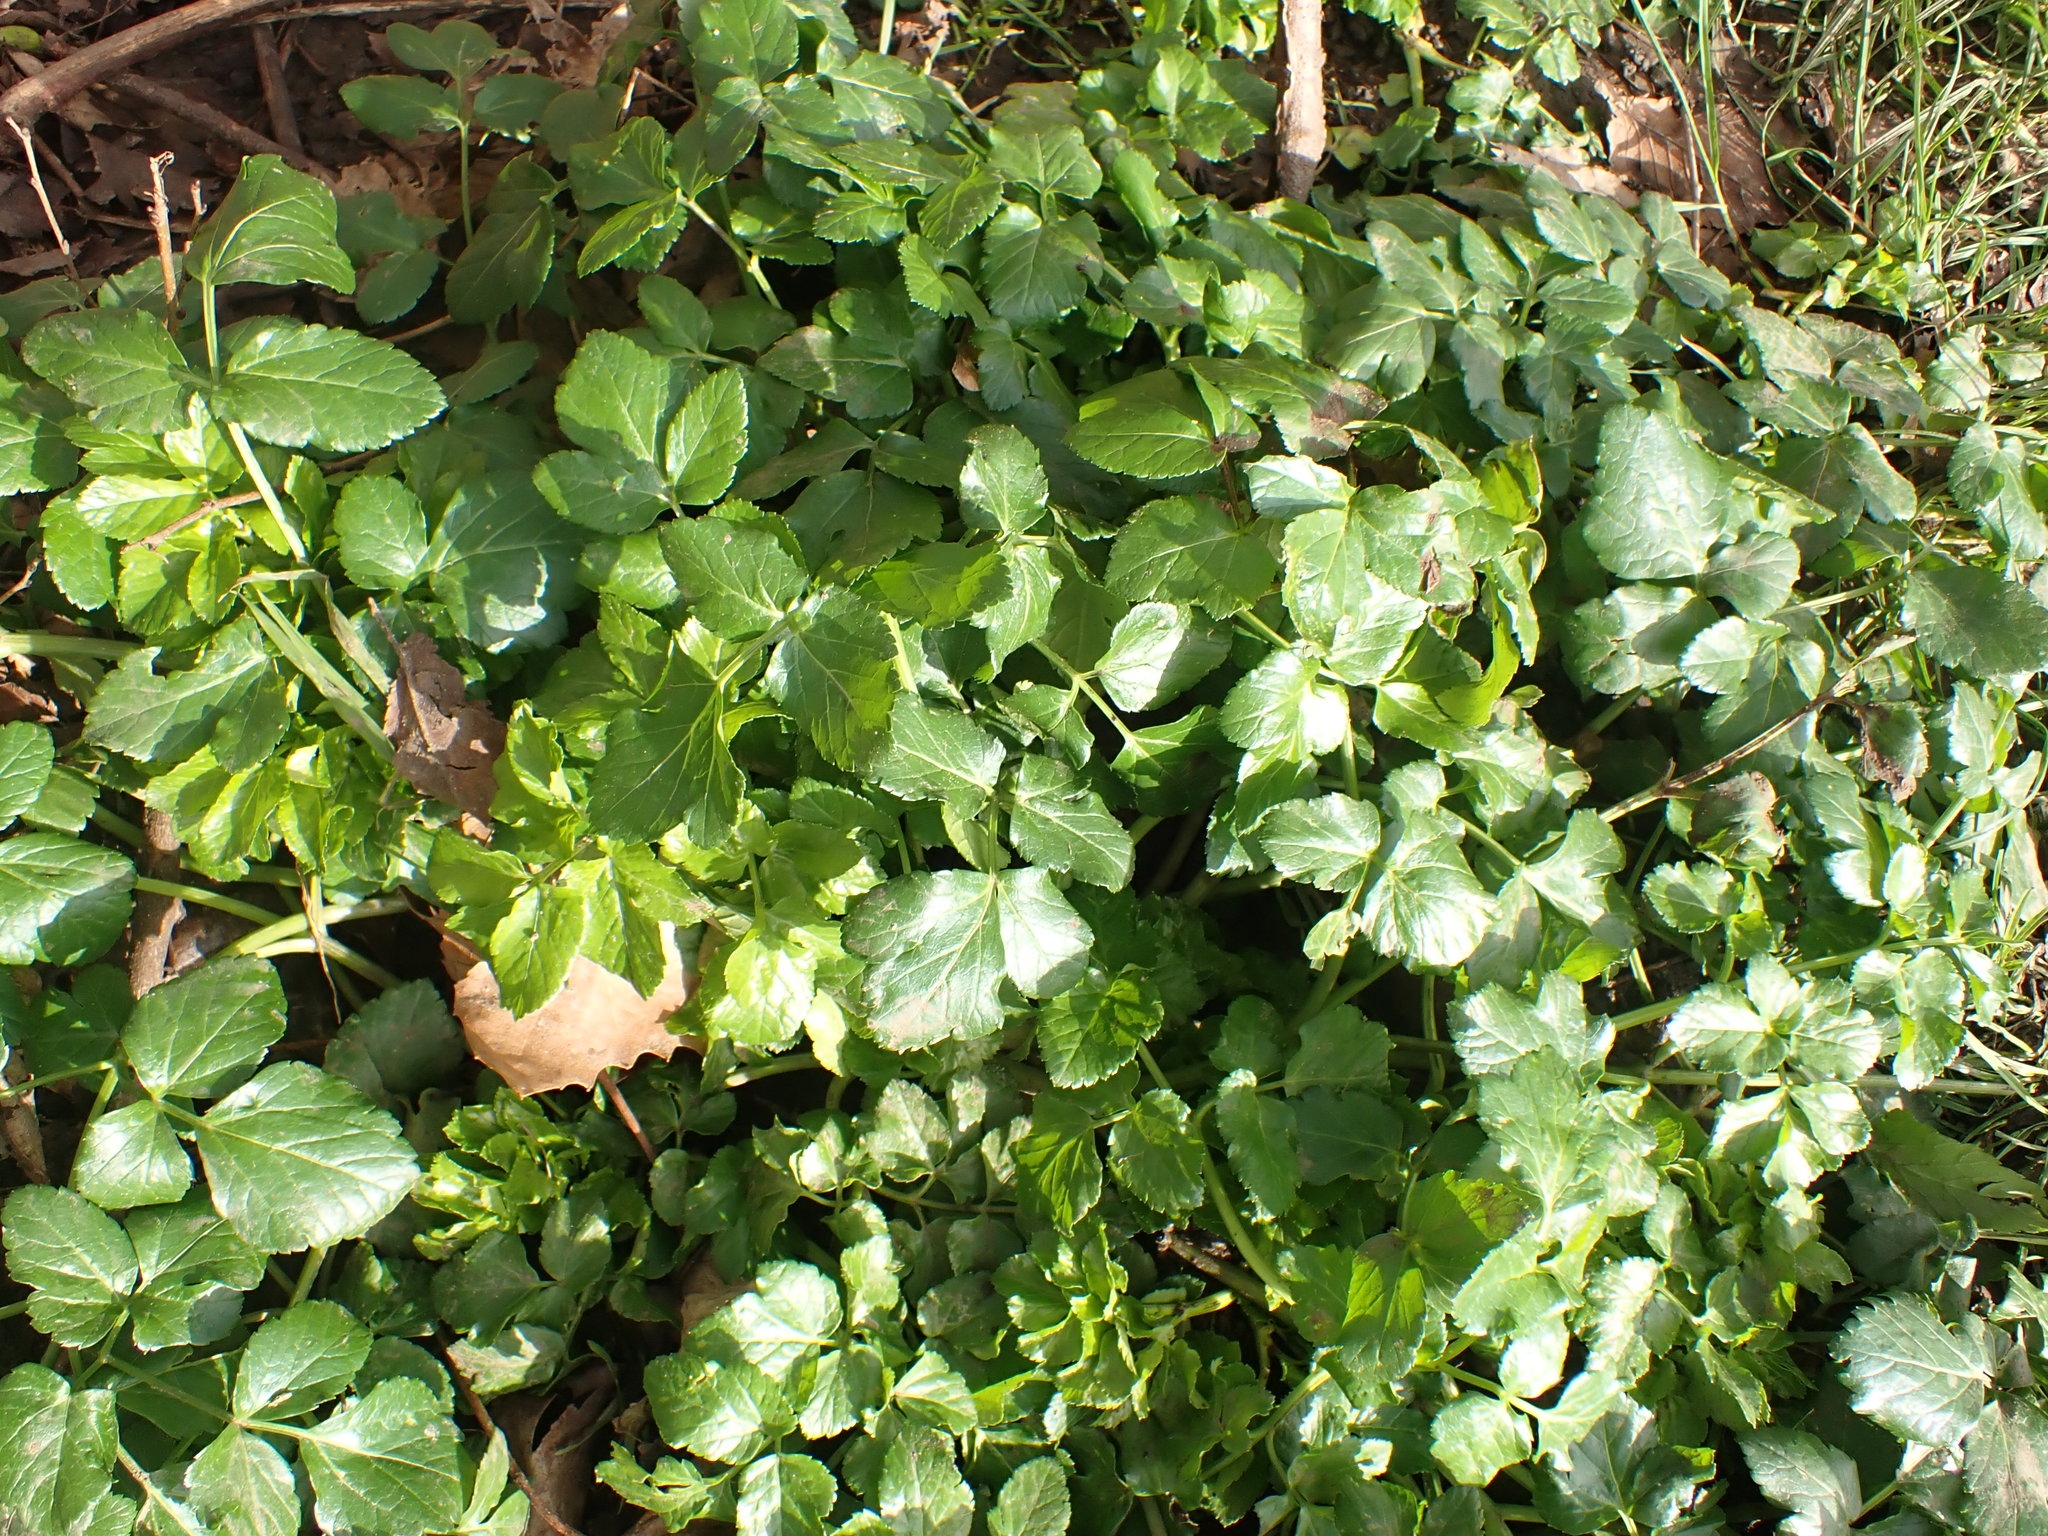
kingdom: Plantae
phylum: Tracheophyta
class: Magnoliopsida
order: Apiales
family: Apiaceae
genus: Smyrnium
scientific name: Smyrnium olusatrum
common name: Alexanders
